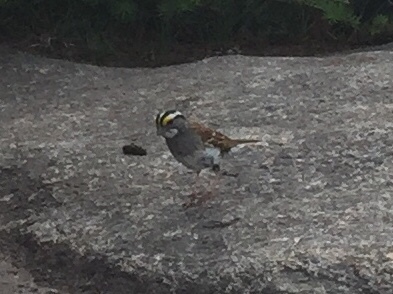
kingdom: Animalia
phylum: Chordata
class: Aves
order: Passeriformes
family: Passerellidae
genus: Zonotrichia
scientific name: Zonotrichia albicollis
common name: White-throated sparrow
